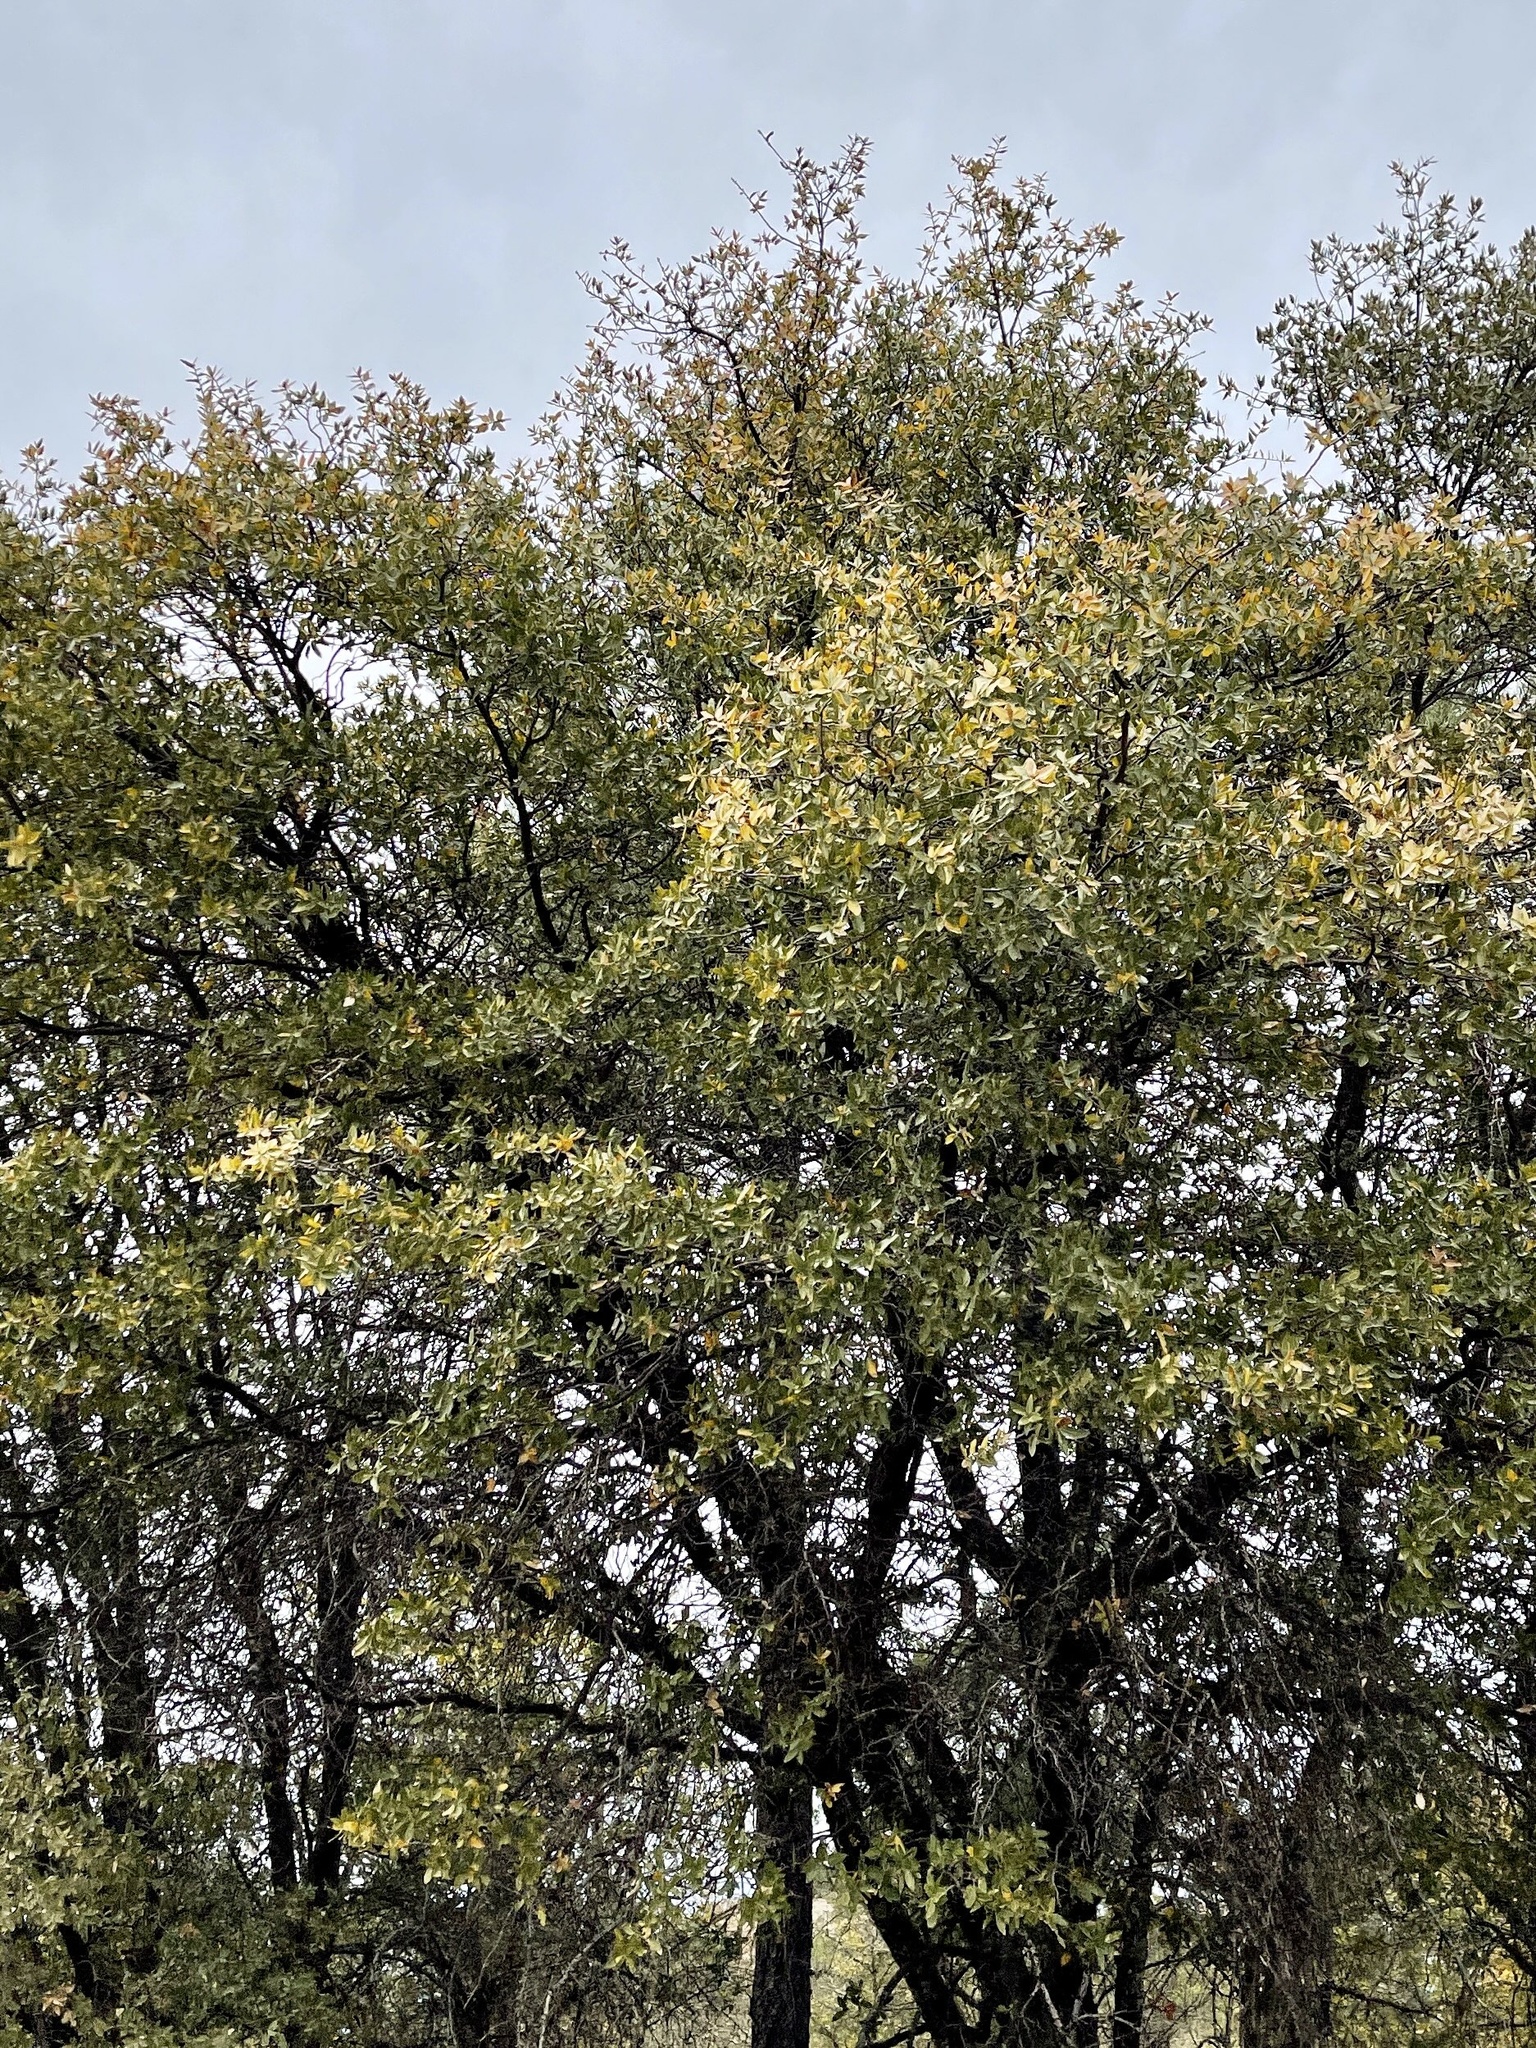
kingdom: Plantae
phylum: Tracheophyta
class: Magnoliopsida
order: Fagales
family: Fagaceae
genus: Quercus
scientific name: Quercus emoryi
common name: Emory oak
